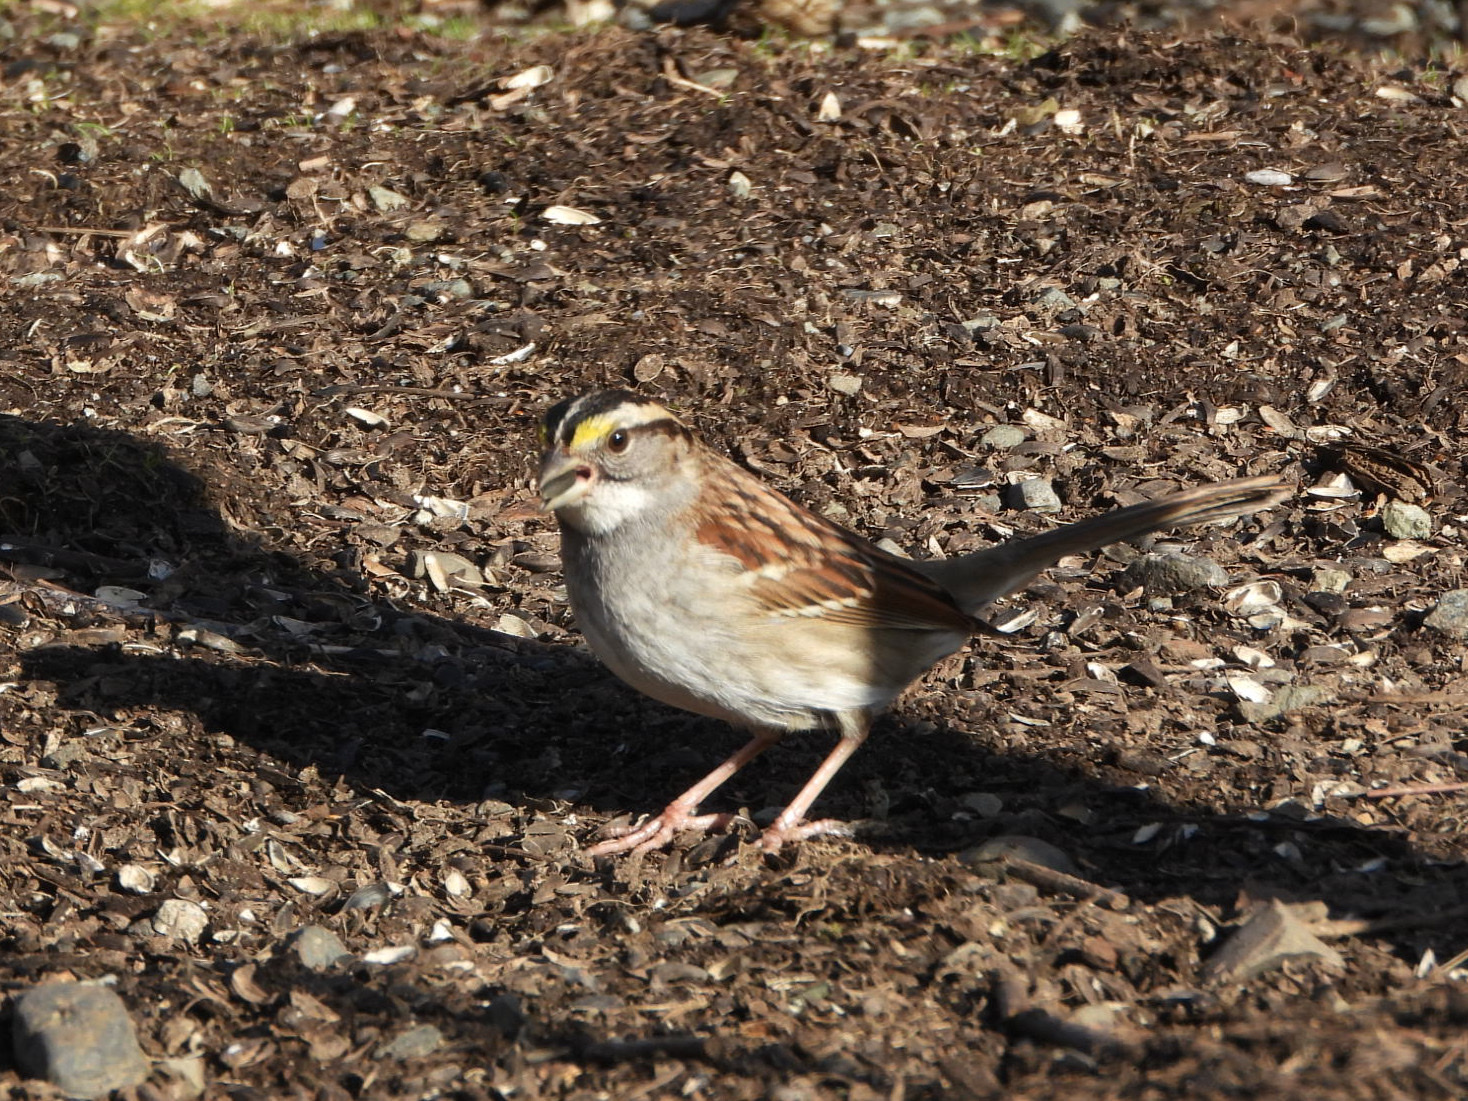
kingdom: Animalia
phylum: Chordata
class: Aves
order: Passeriformes
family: Passerellidae
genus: Zonotrichia
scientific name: Zonotrichia albicollis
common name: White-throated sparrow
